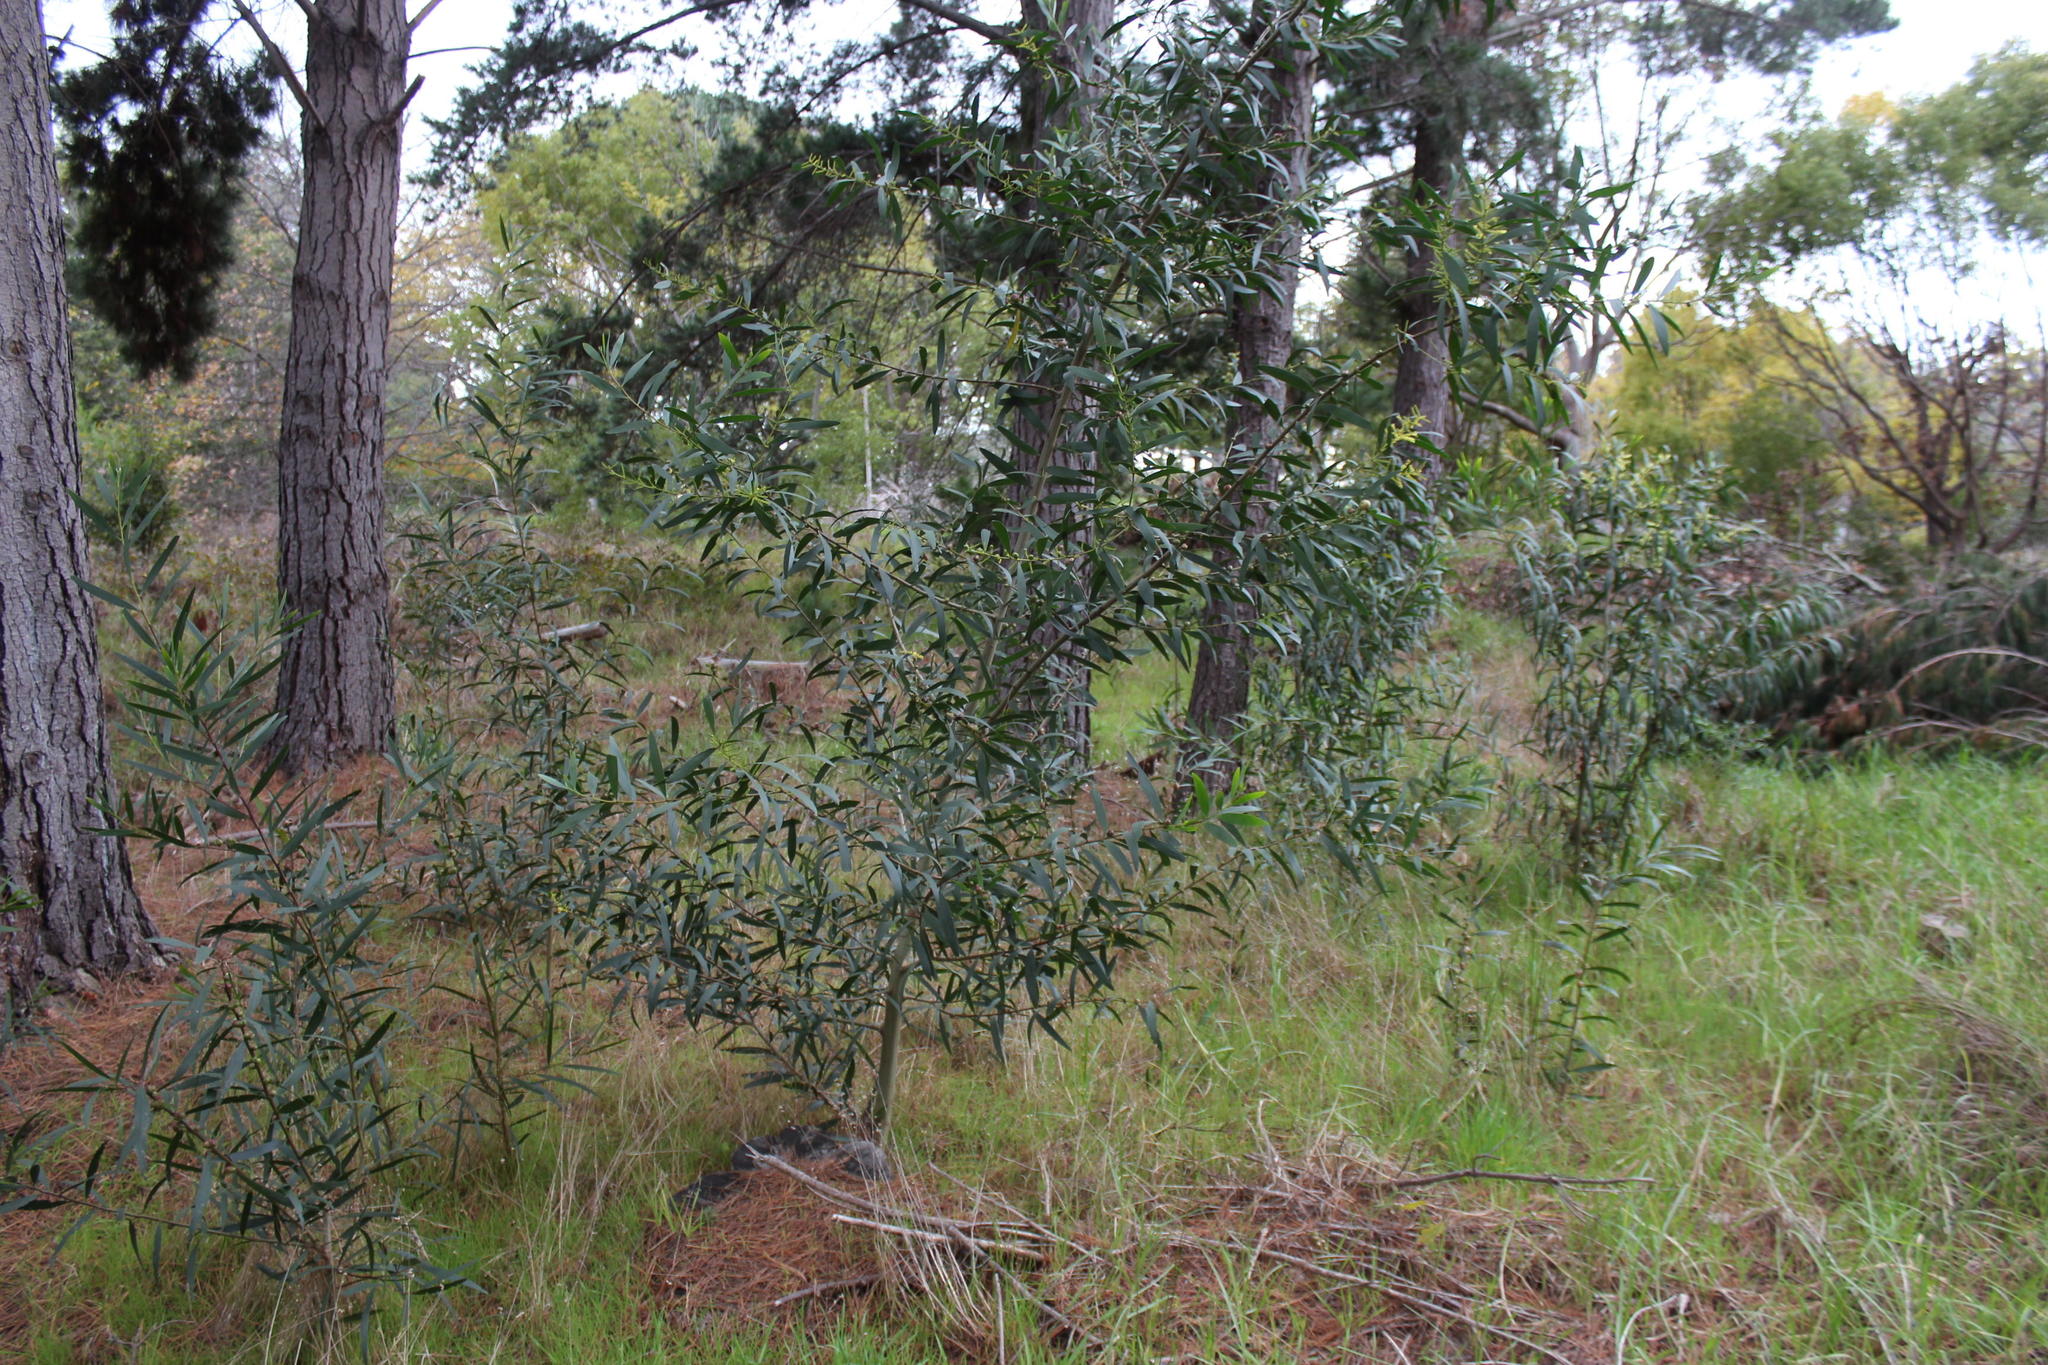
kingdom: Plantae
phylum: Tracheophyta
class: Magnoliopsida
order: Fabales
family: Fabaceae
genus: Acacia
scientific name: Acacia longifolia
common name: Sydney golden wattle
